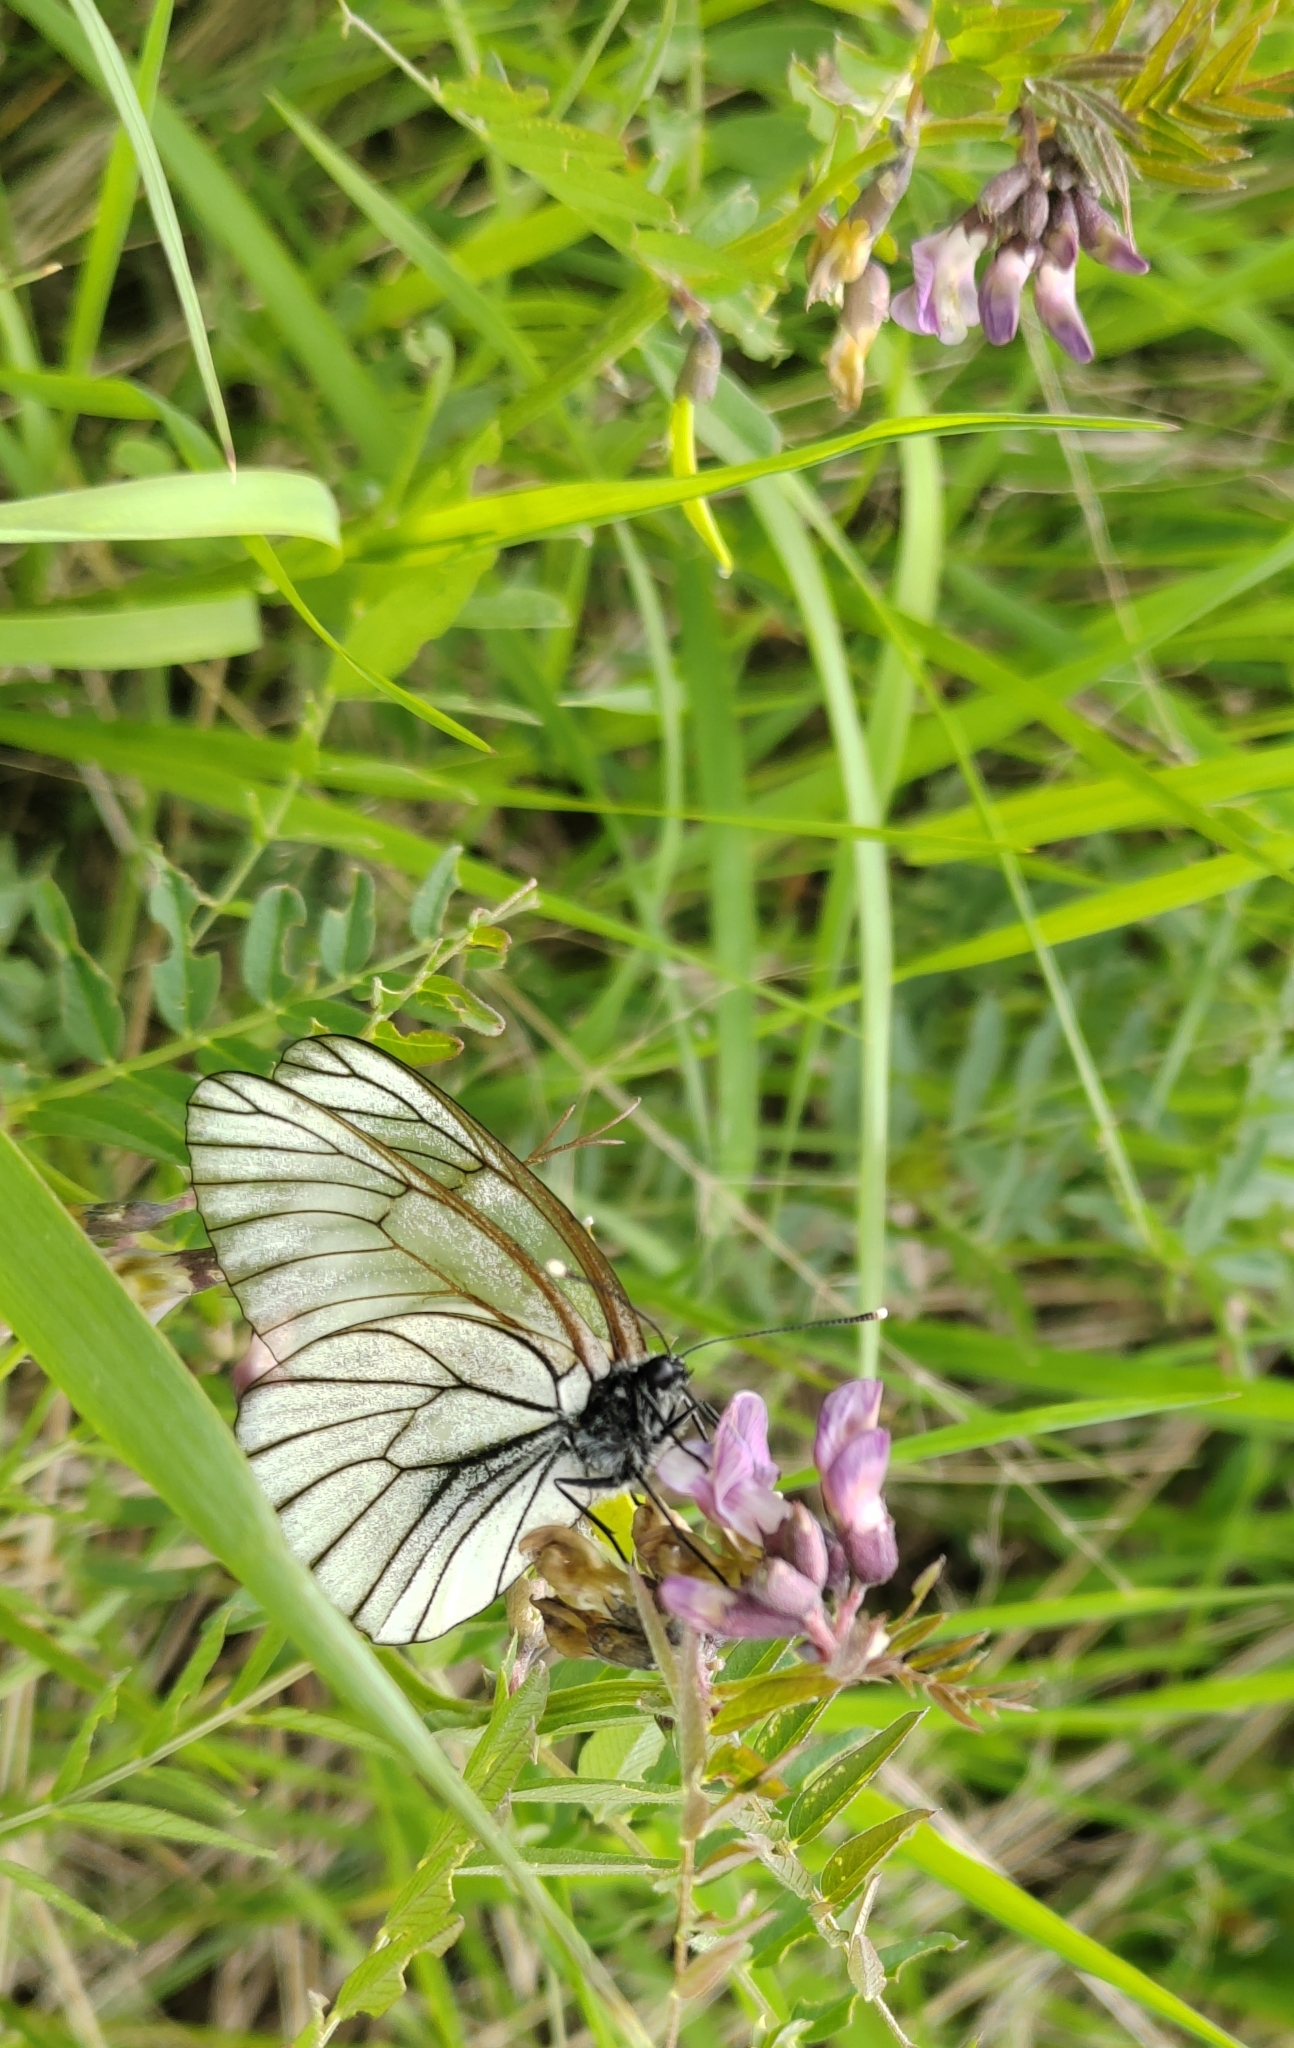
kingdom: Animalia
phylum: Arthropoda
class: Insecta
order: Lepidoptera
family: Pieridae
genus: Aporia
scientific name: Aporia crataegi
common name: Black-veined white
